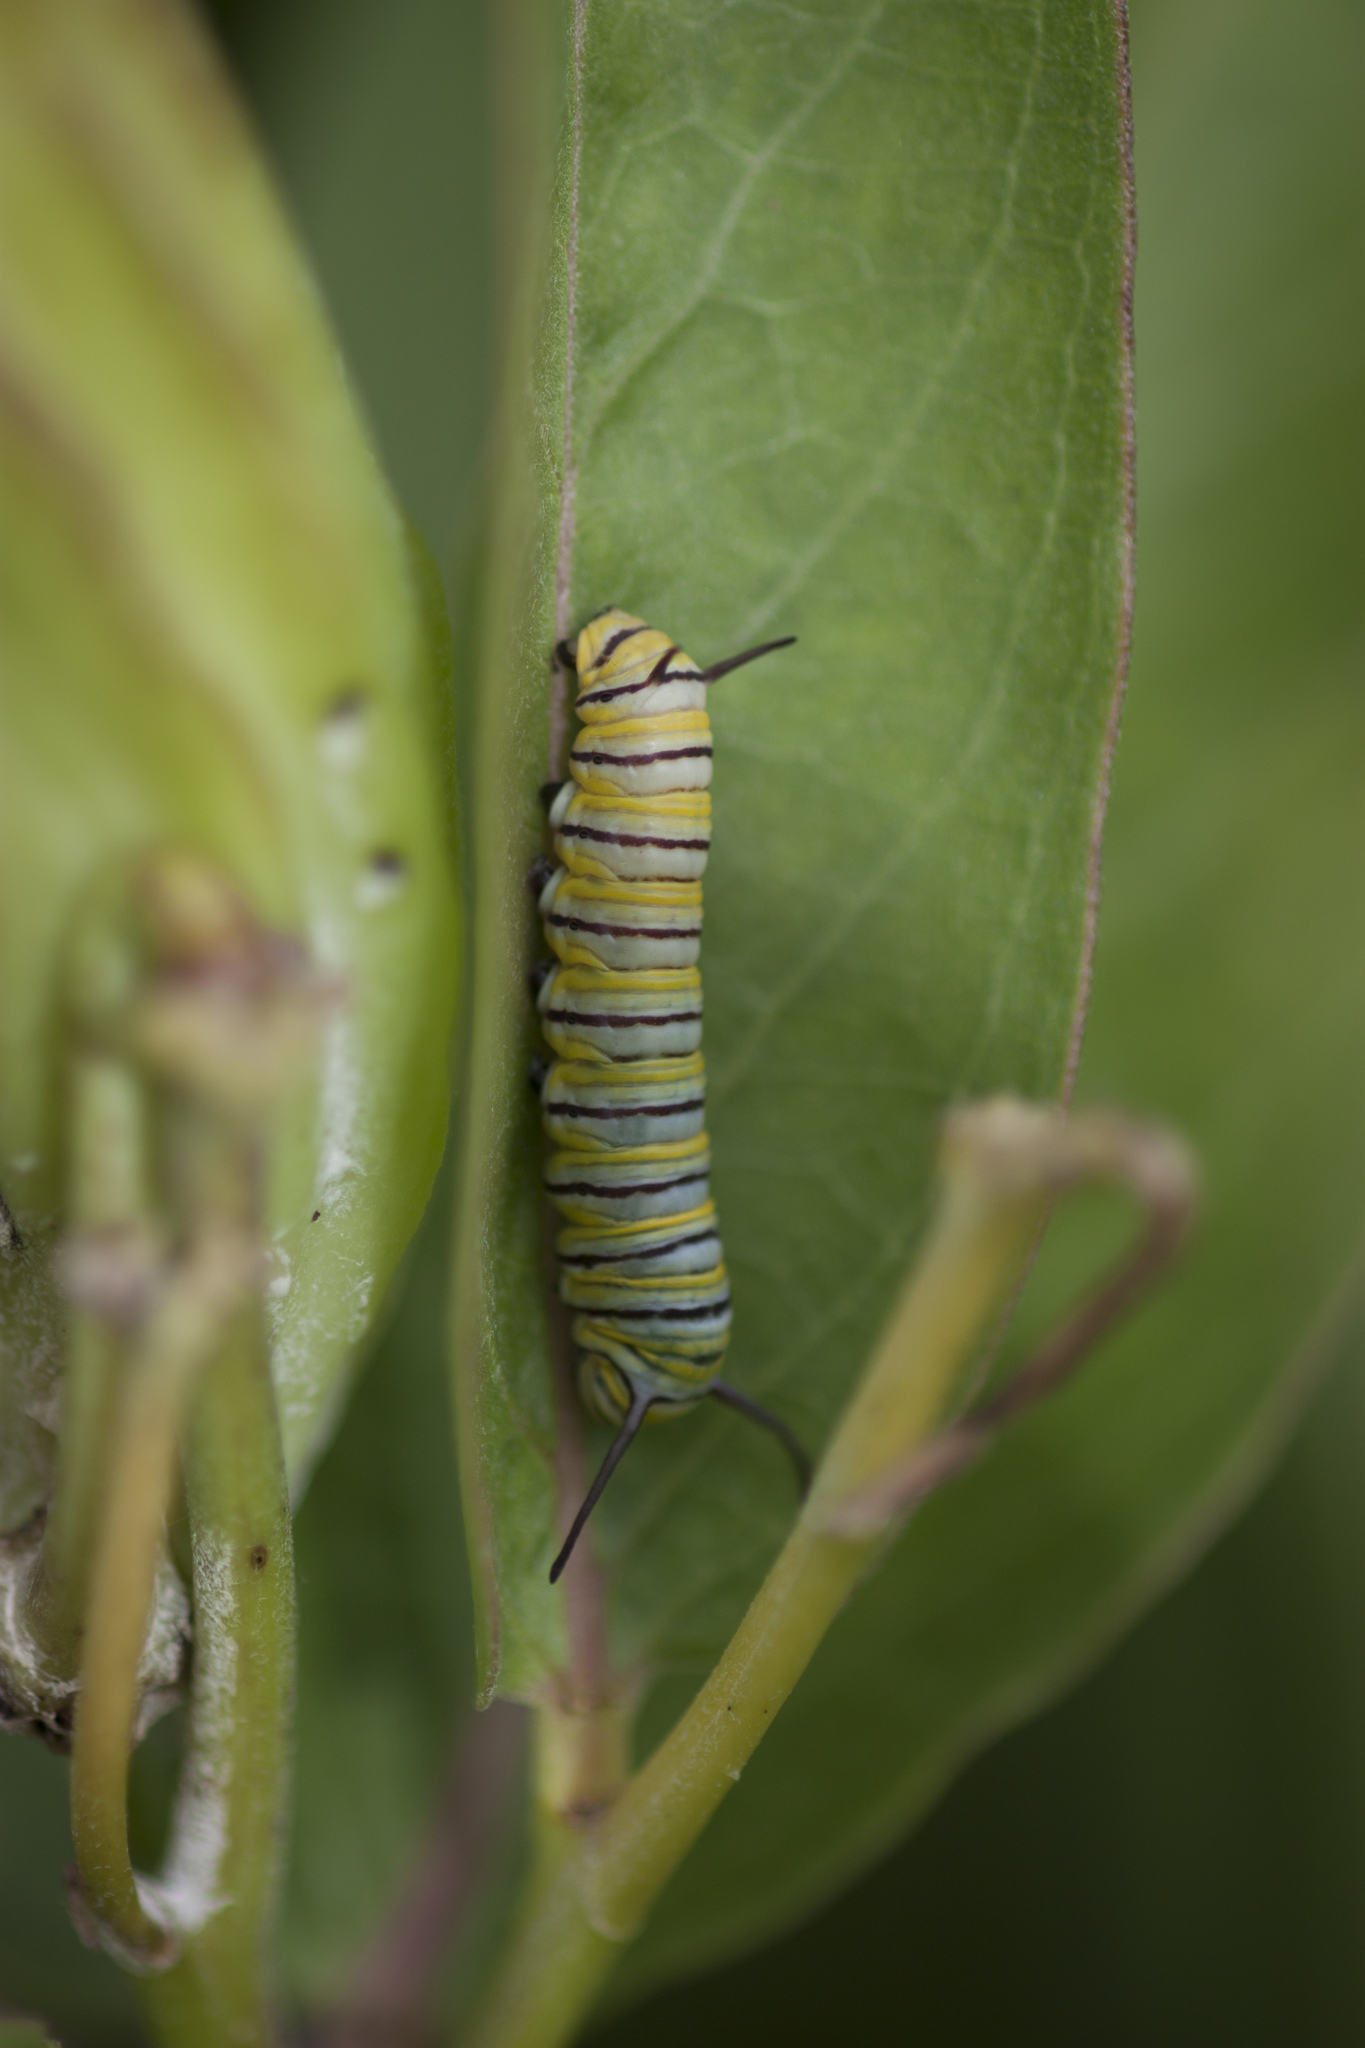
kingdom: Animalia
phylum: Arthropoda
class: Insecta
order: Lepidoptera
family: Nymphalidae
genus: Danaus
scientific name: Danaus plexippus
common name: Monarch
